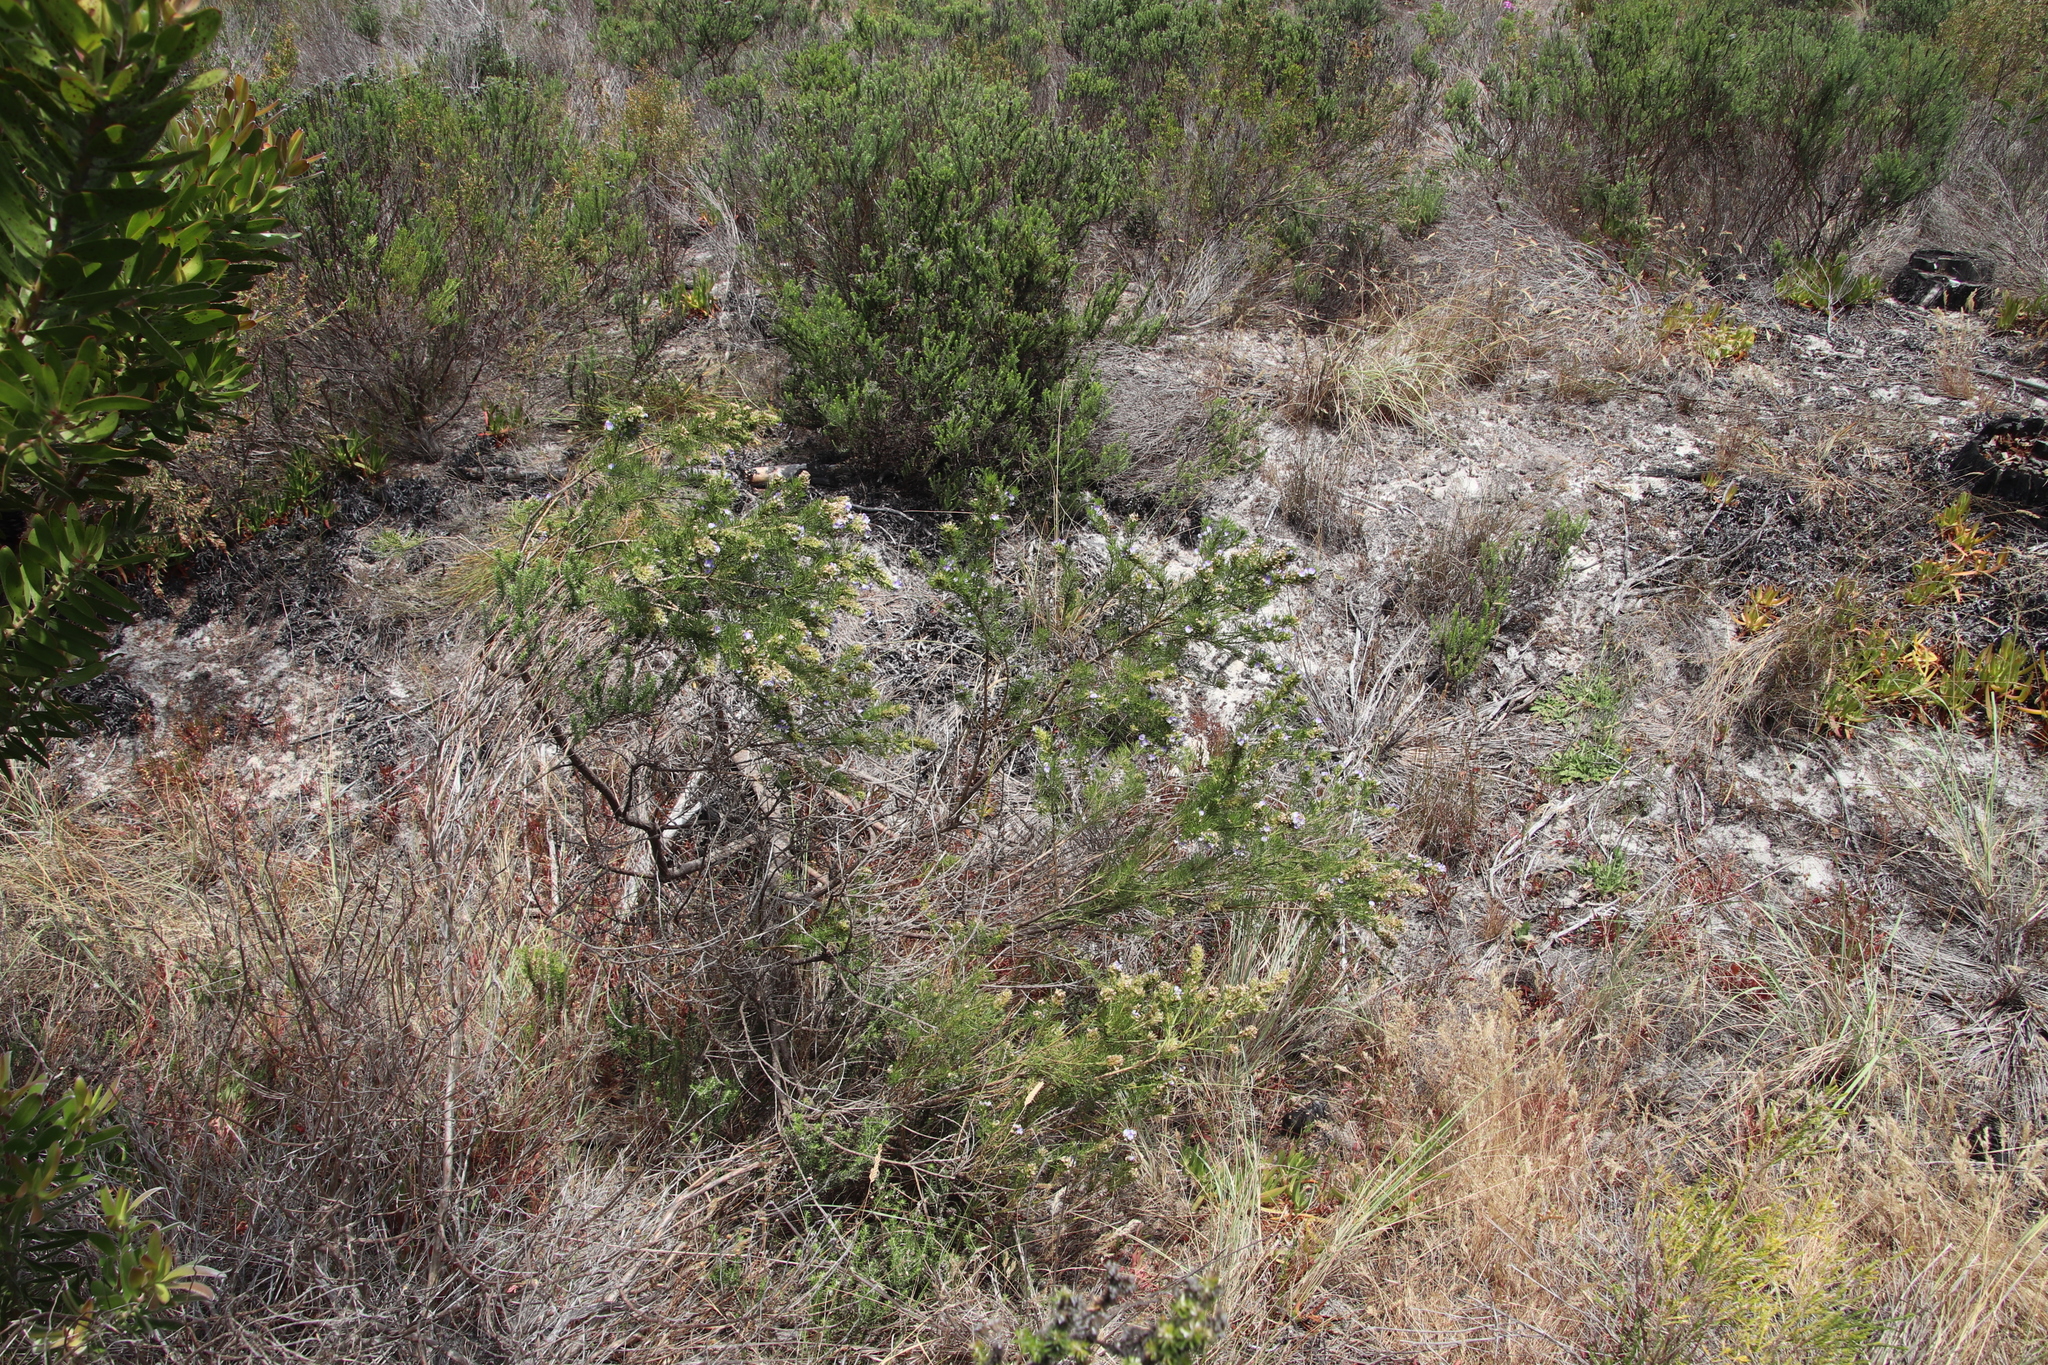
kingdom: Plantae
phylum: Tracheophyta
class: Magnoliopsida
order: Fabales
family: Fabaceae
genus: Psoralea
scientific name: Psoralea pinnata
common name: African scurfpea
